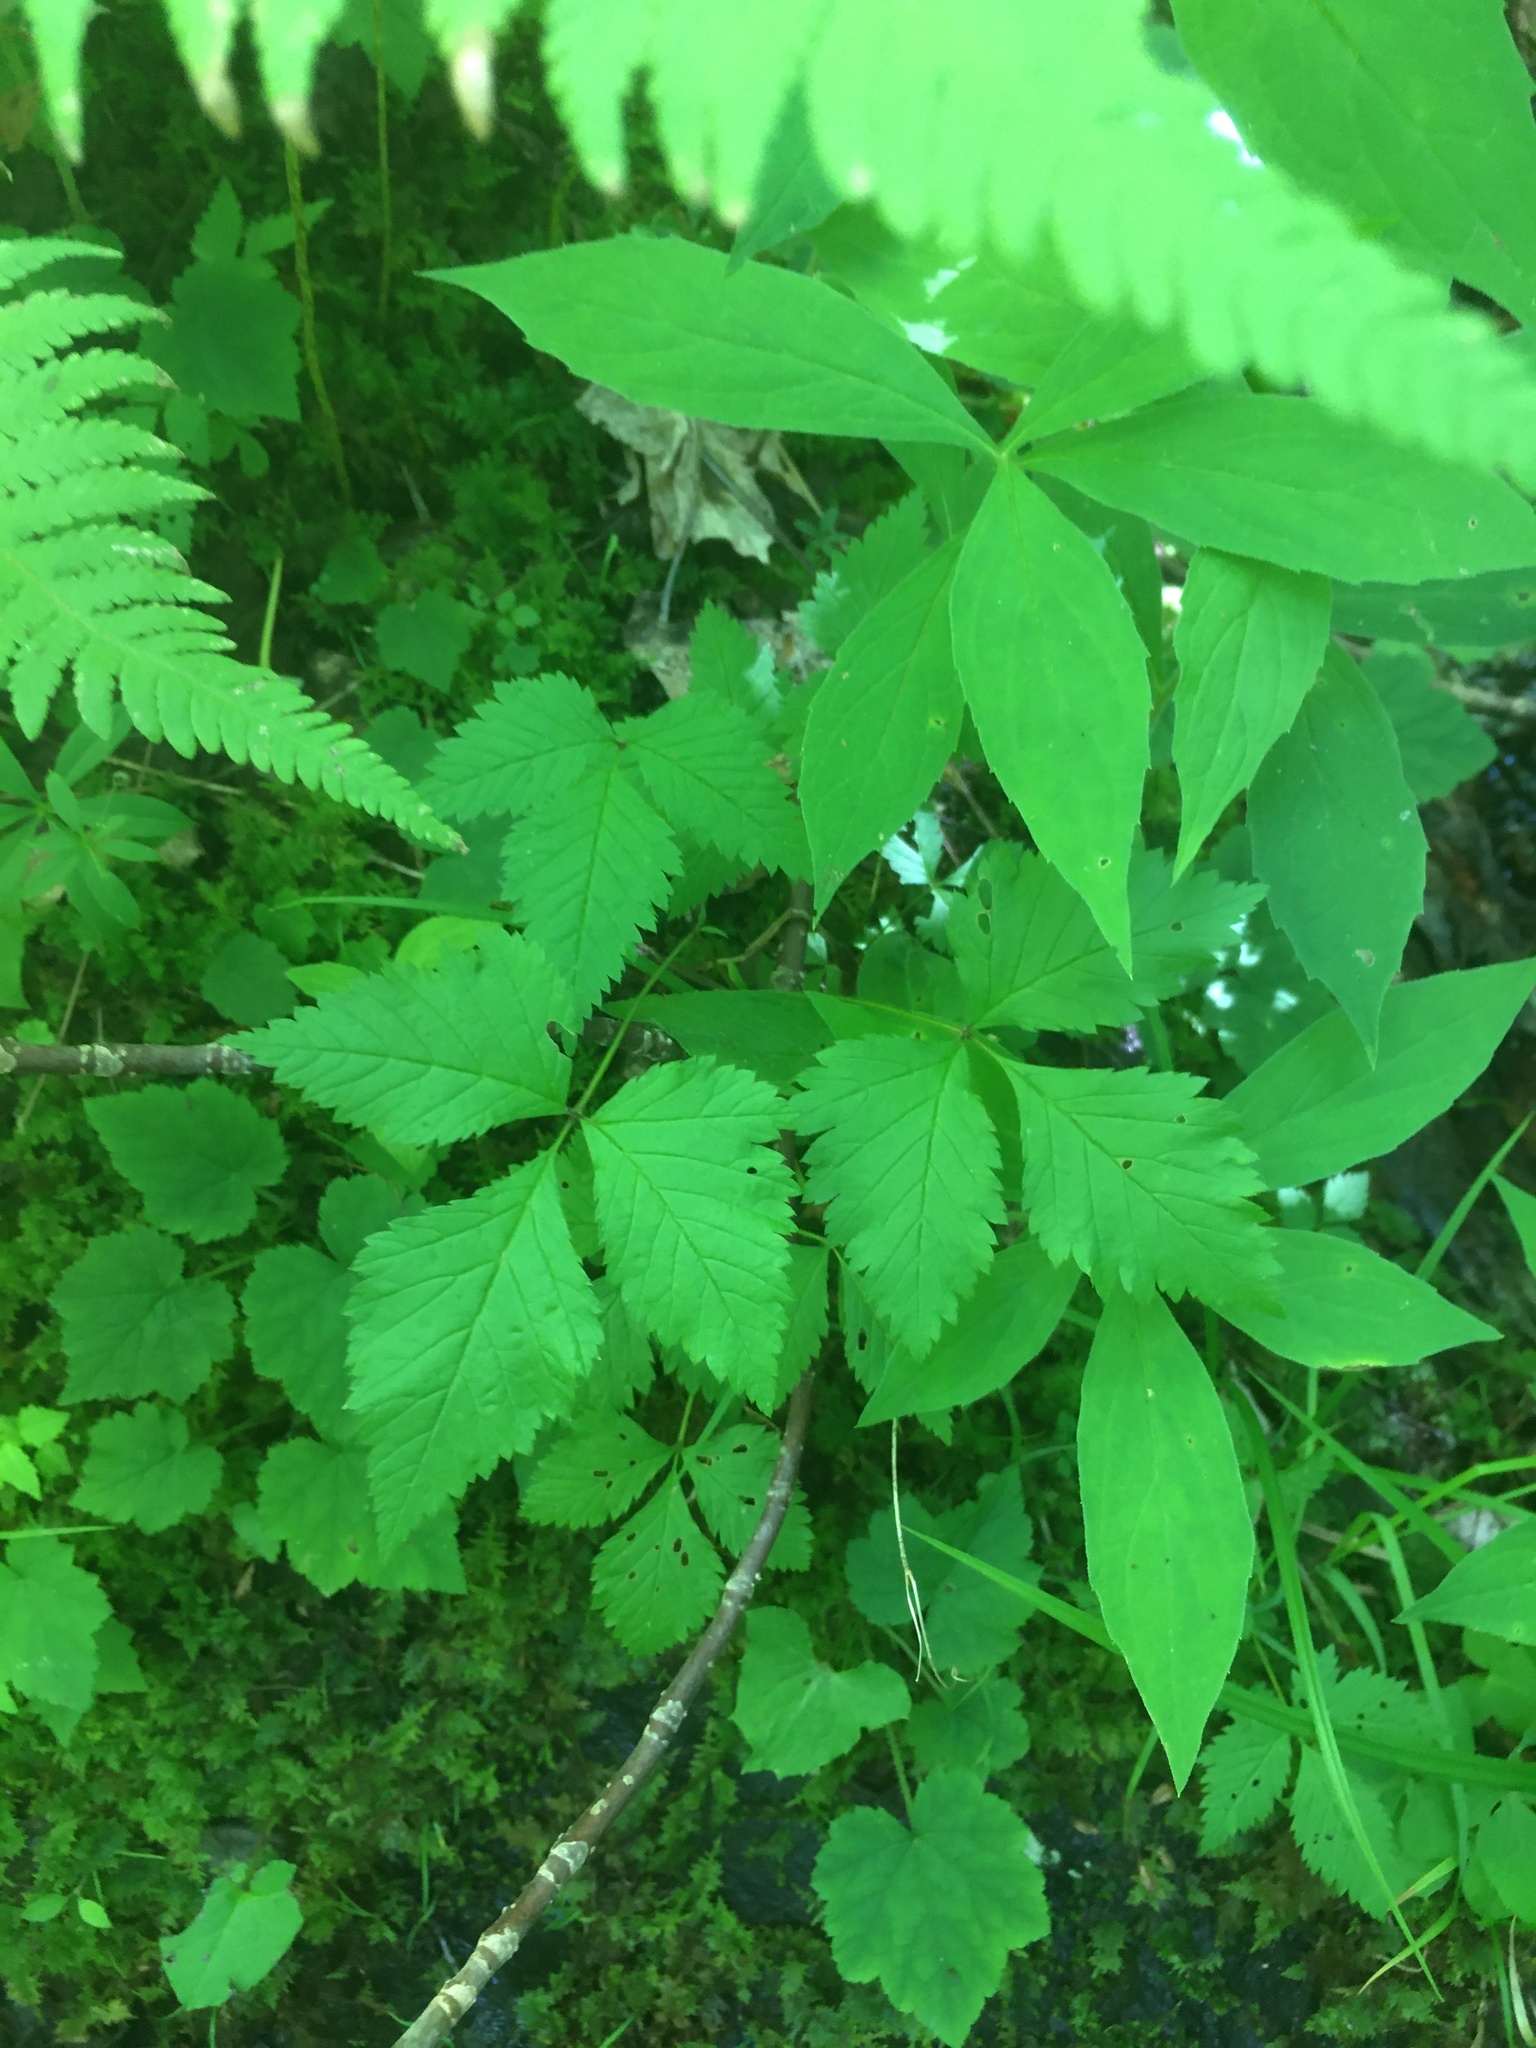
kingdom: Plantae
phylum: Tracheophyta
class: Magnoliopsida
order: Rosales
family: Rosaceae
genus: Rubus
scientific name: Rubus pubescens
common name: Dwarf raspberry
